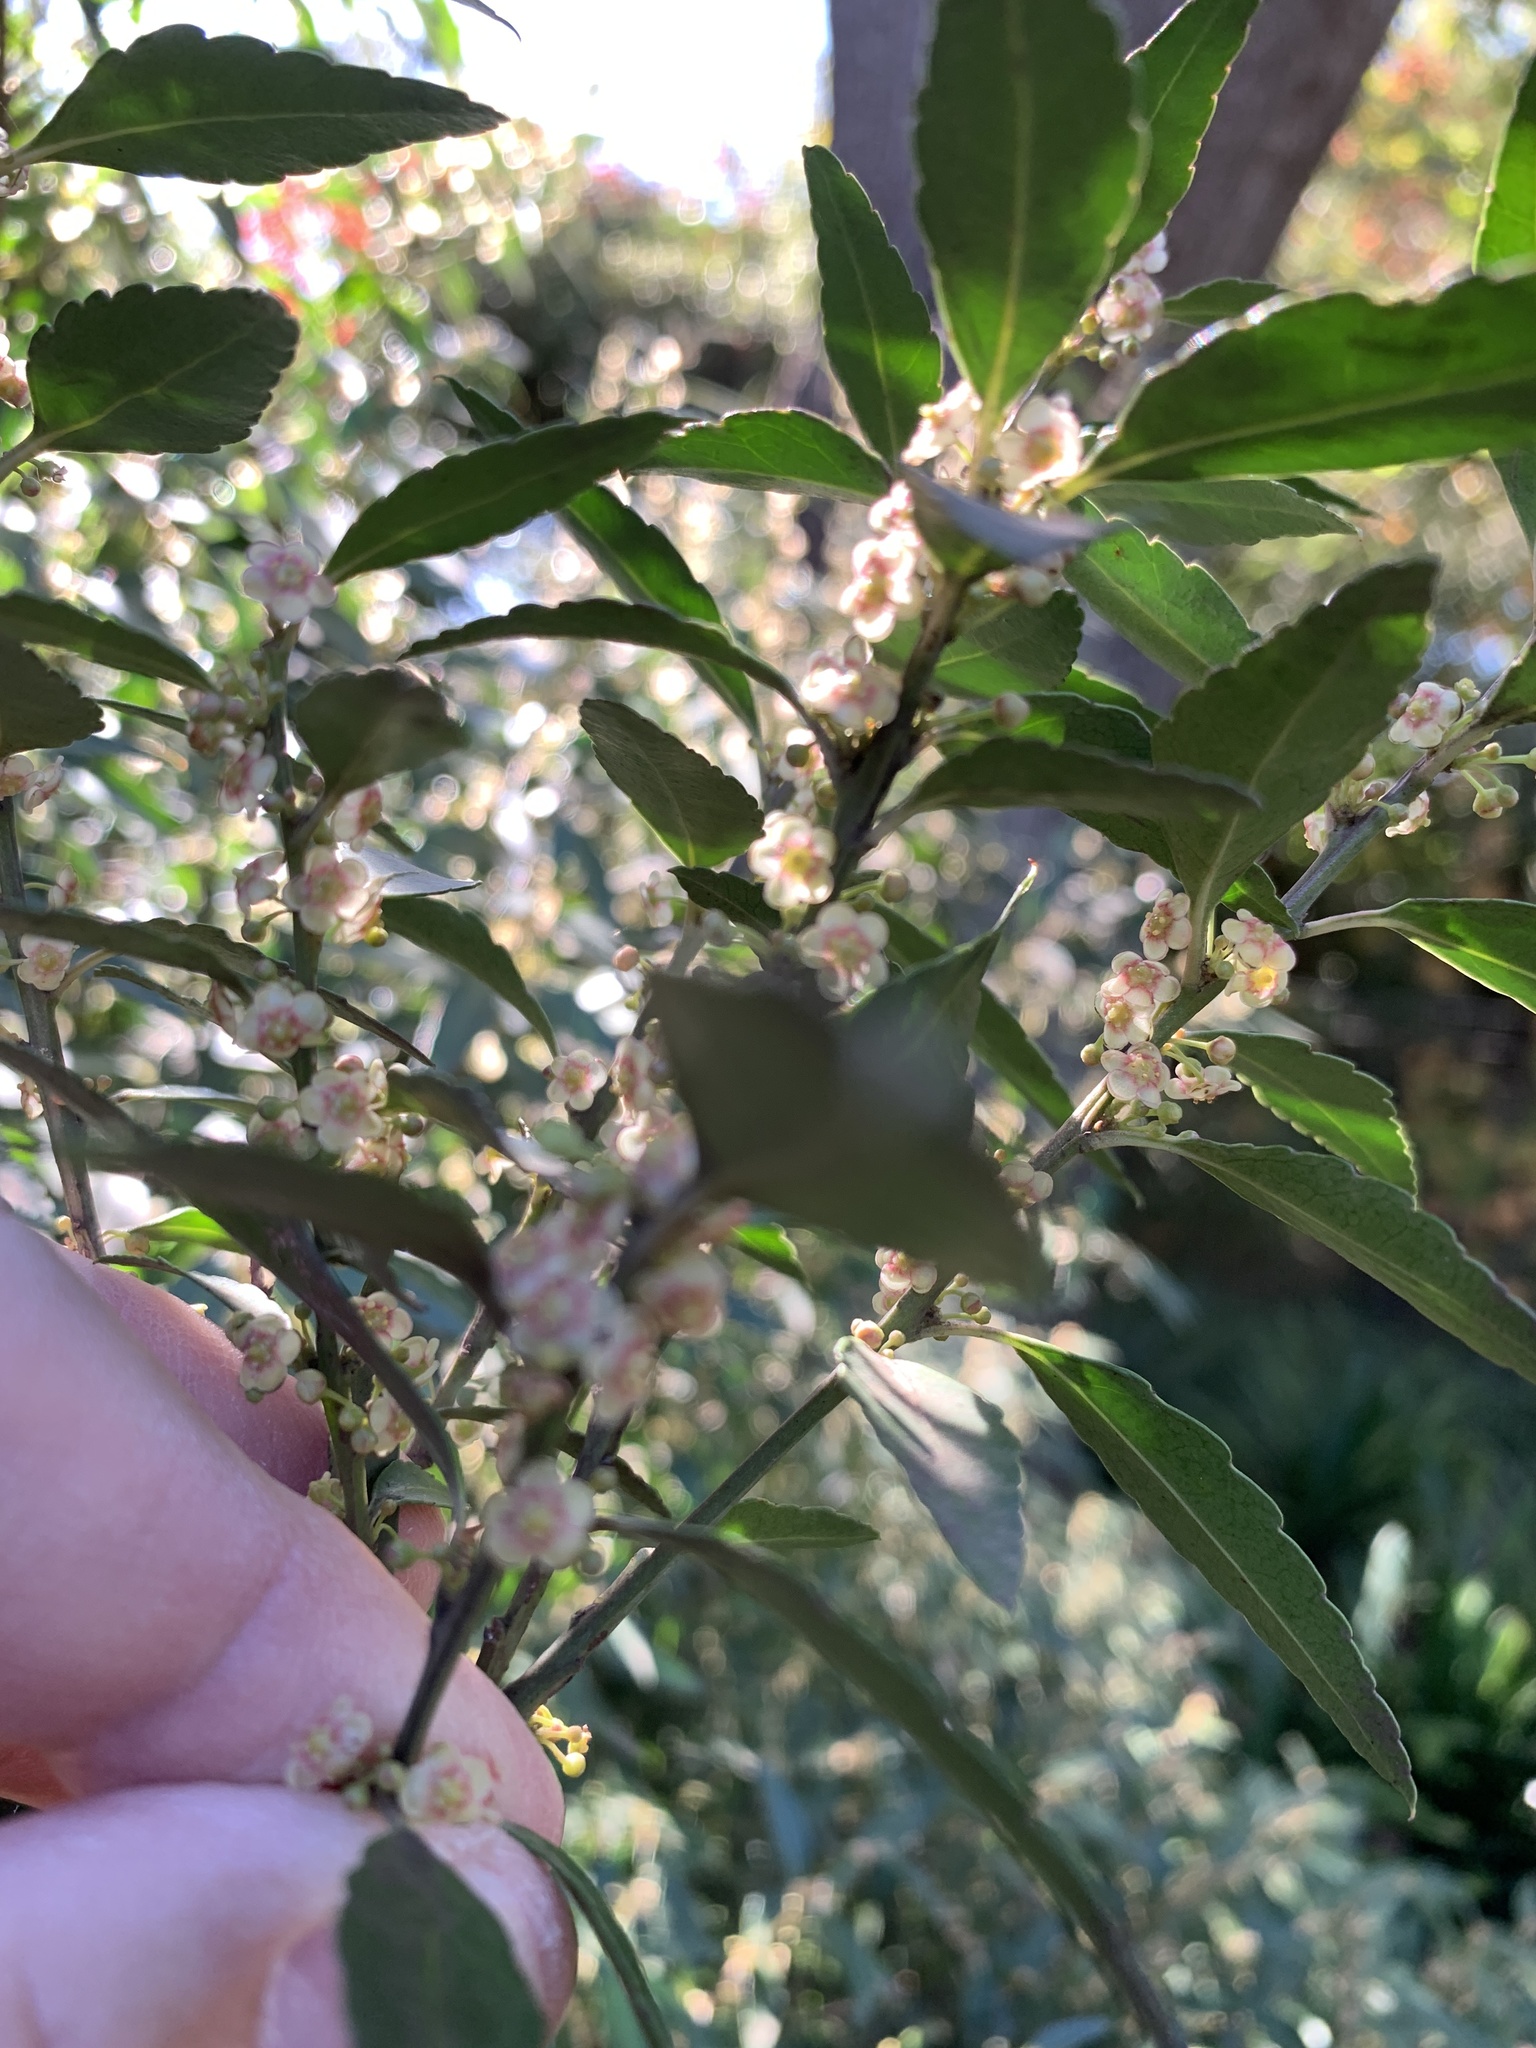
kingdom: Plantae
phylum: Tracheophyta
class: Magnoliopsida
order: Celastrales
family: Celastraceae
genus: Gymnosporia
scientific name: Gymnosporia acuminata
